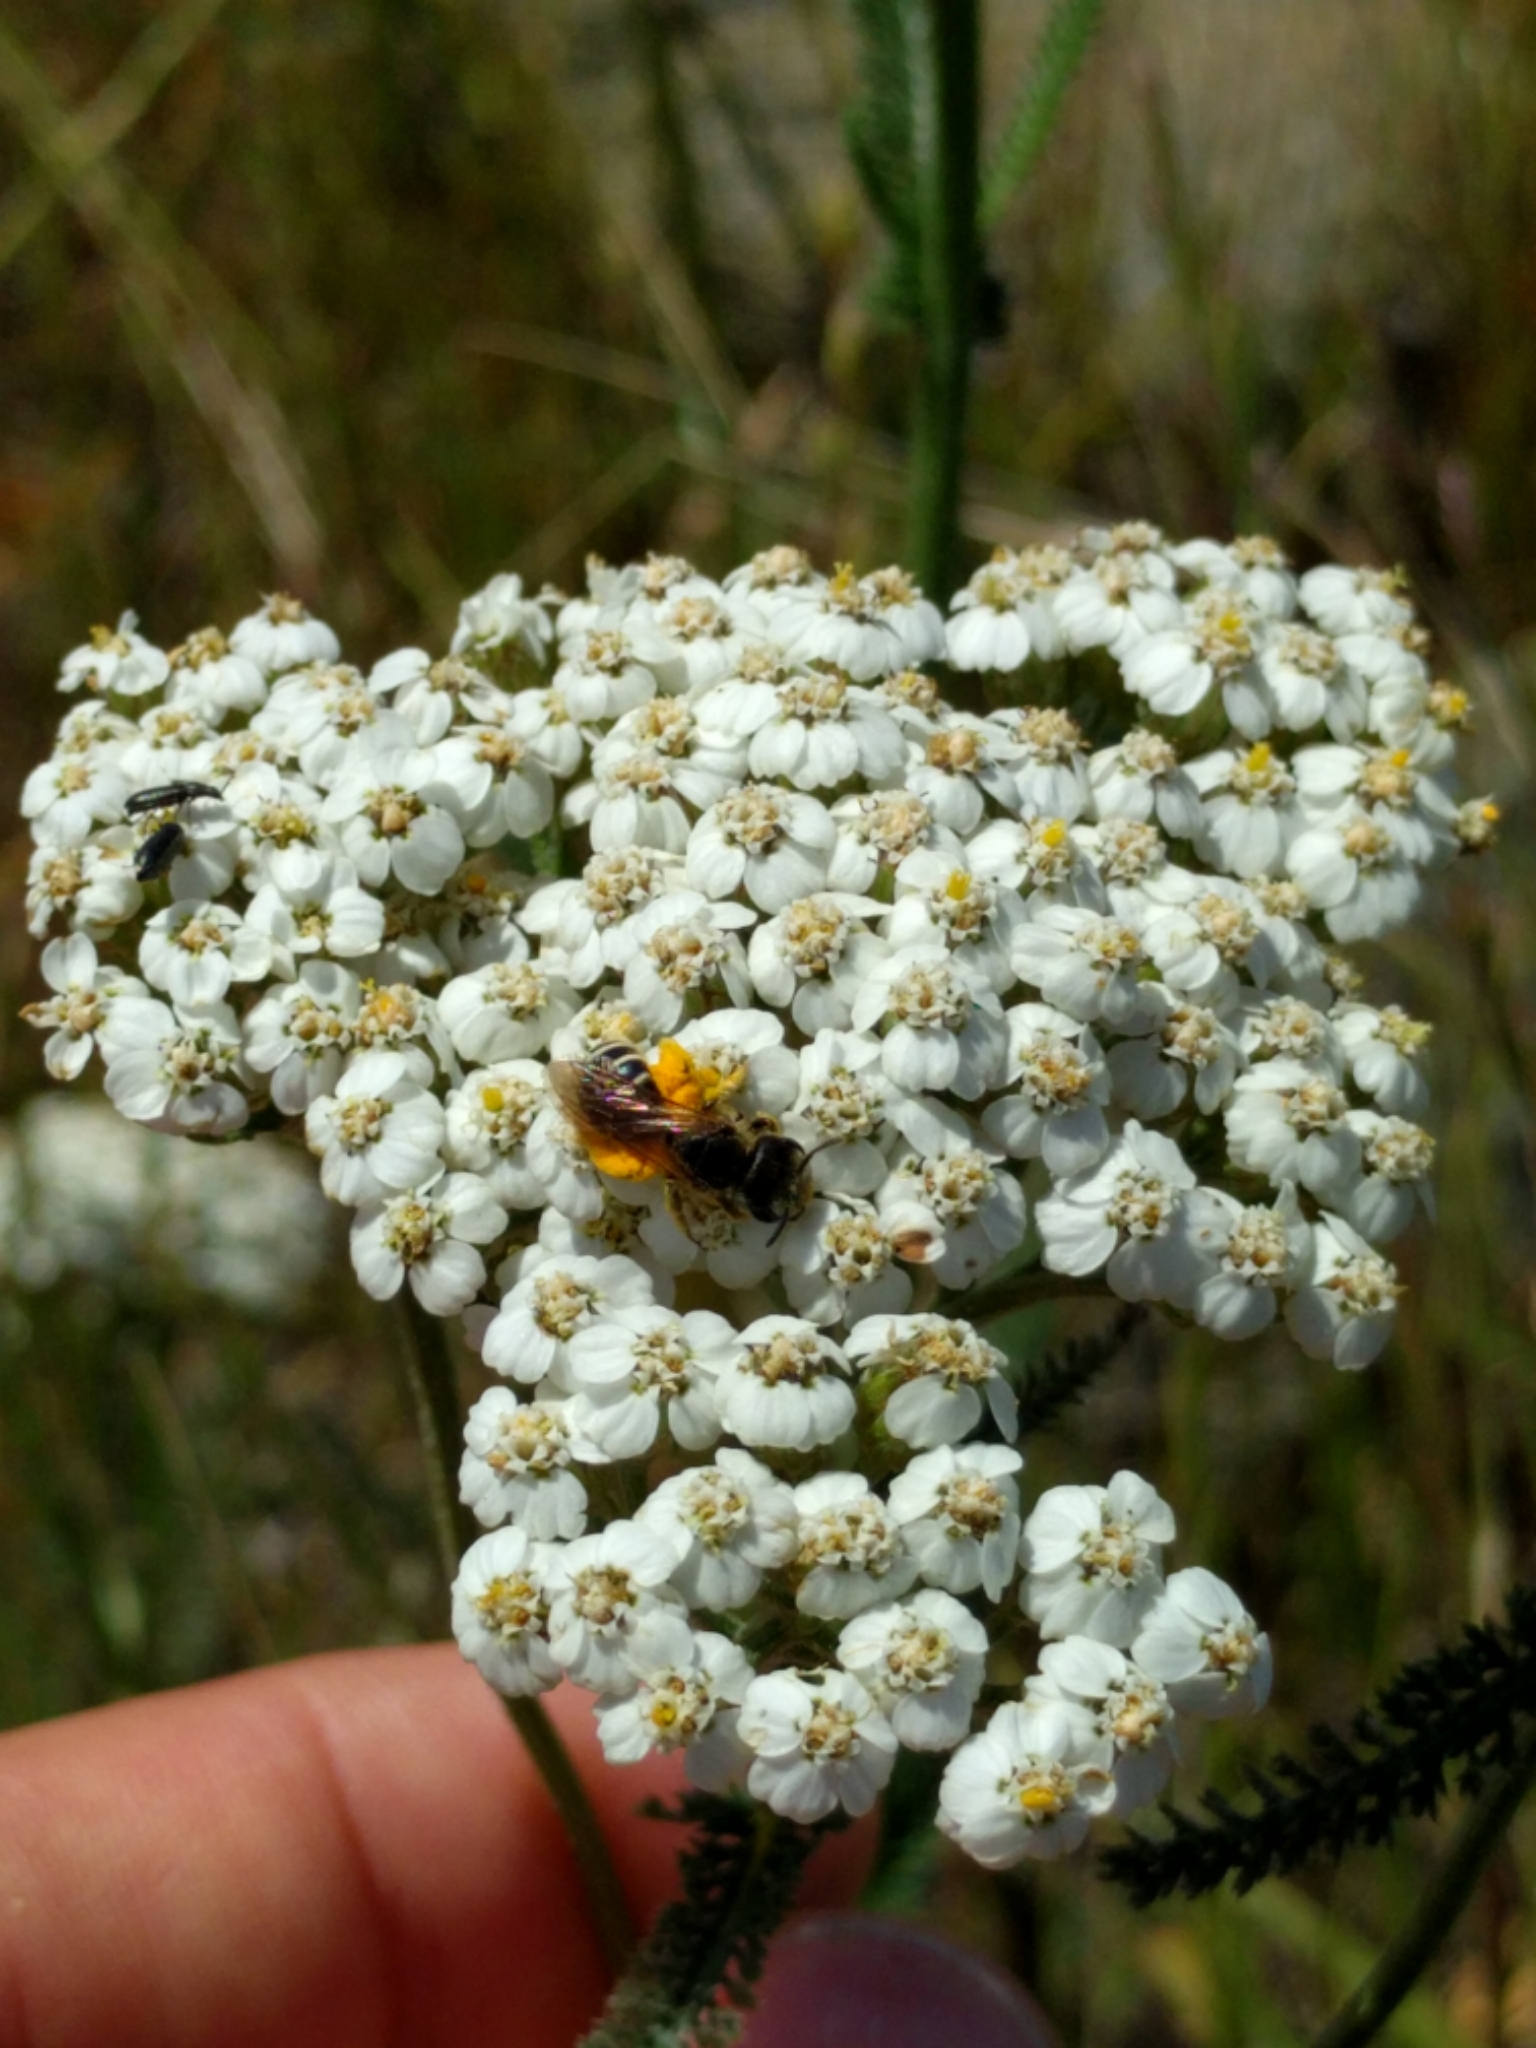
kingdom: Plantae
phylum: Tracheophyta
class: Magnoliopsida
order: Asterales
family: Asteraceae
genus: Achillea
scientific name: Achillea millefolium
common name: Yarrow
